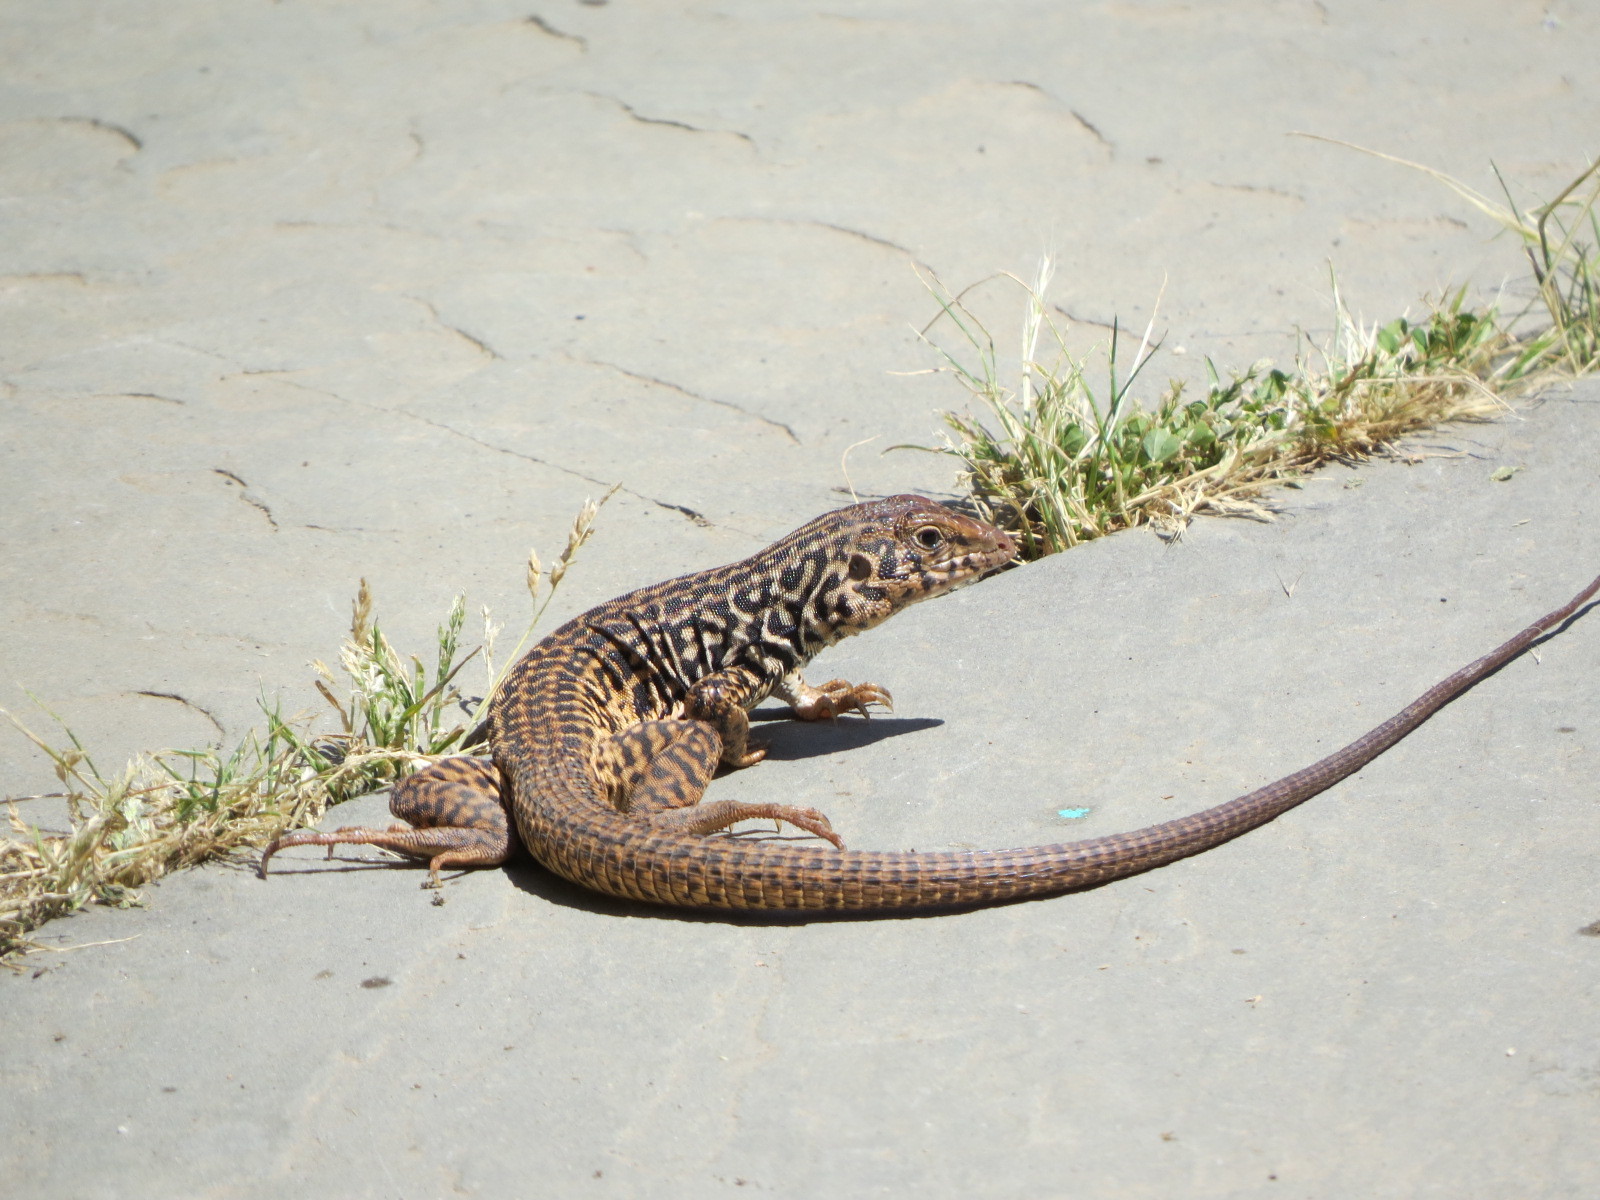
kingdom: Animalia
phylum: Chordata
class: Squamata
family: Teiidae
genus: Aspidoscelis
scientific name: Aspidoscelis tigris
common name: Tiger whiptail
